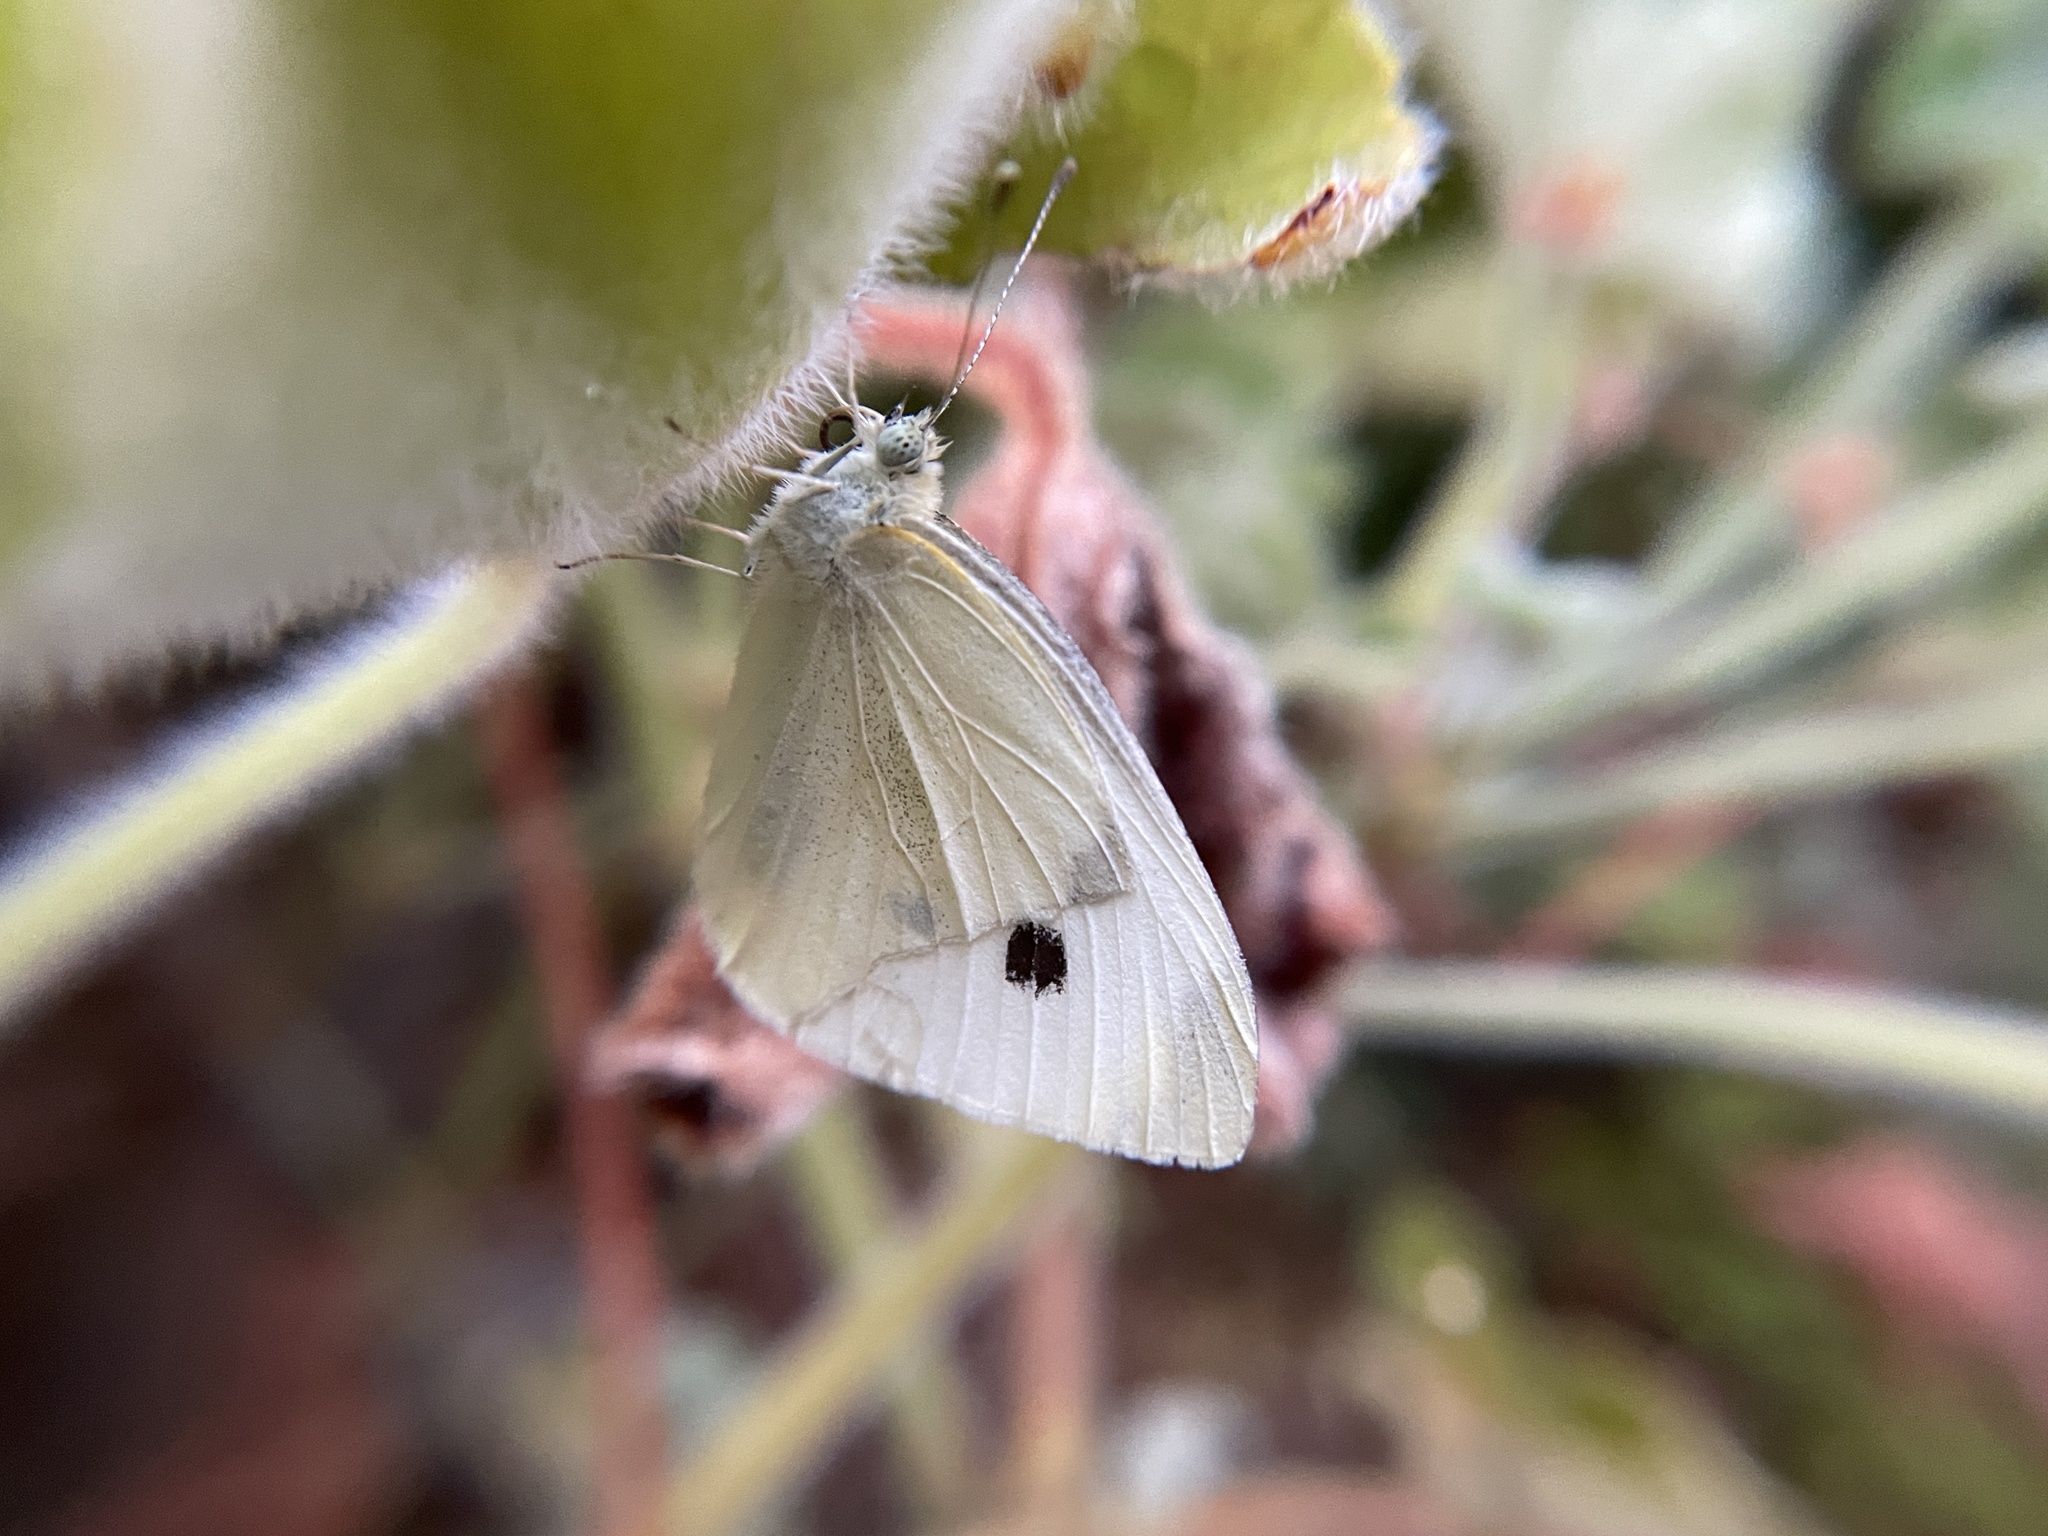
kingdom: Animalia
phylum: Arthropoda
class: Insecta
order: Lepidoptera
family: Pieridae
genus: Pieris
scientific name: Pieris rapae
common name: Small white
